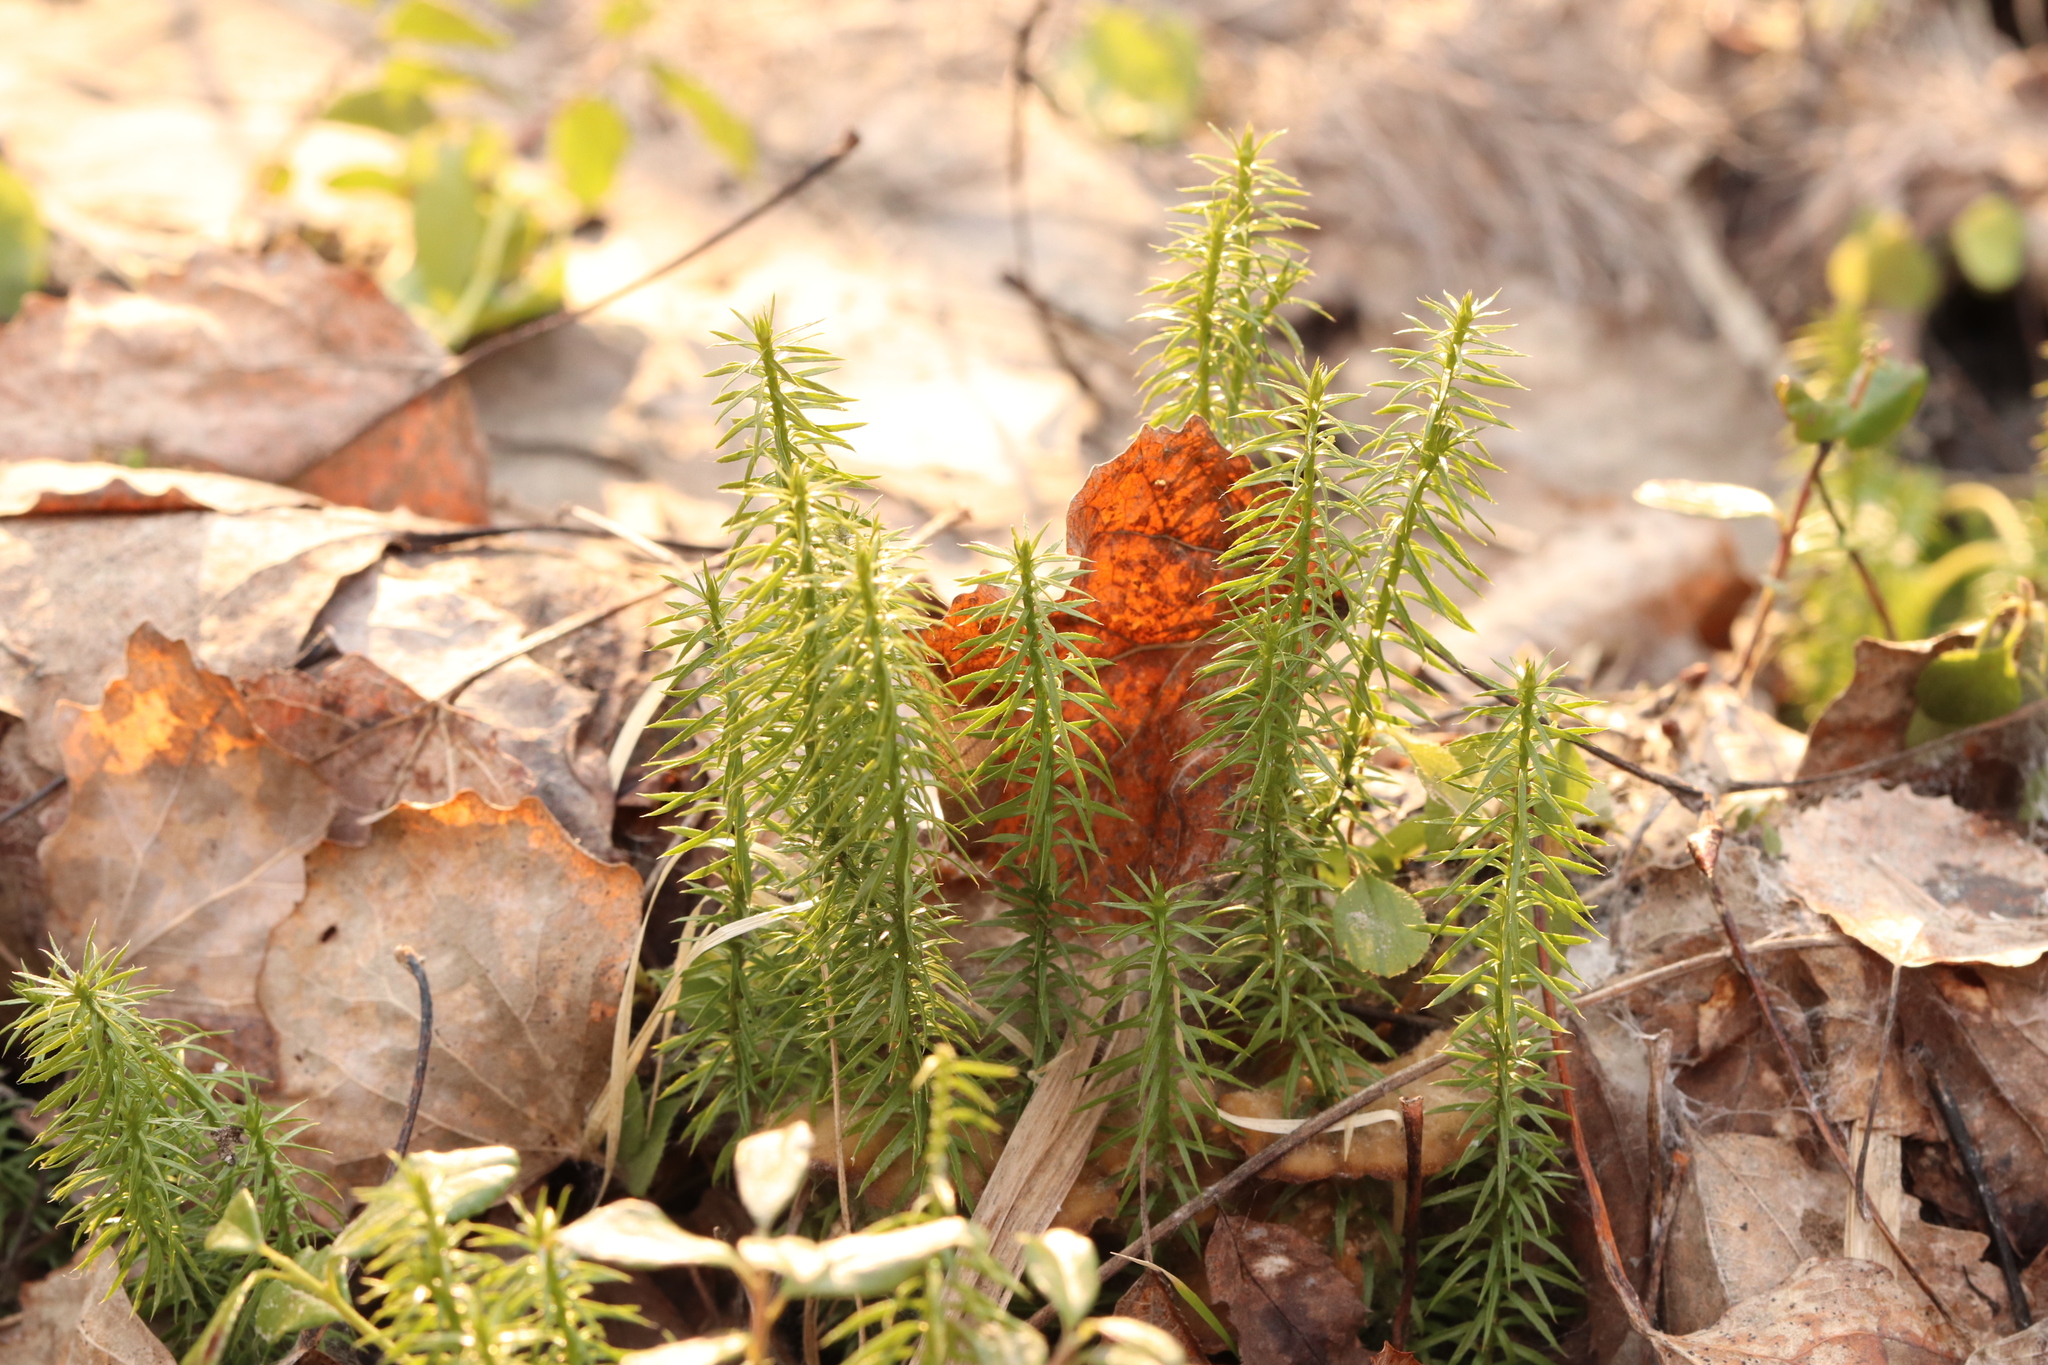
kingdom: Plantae
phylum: Tracheophyta
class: Lycopodiopsida
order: Lycopodiales
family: Lycopodiaceae
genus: Spinulum
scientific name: Spinulum annotinum
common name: Interrupted club-moss
